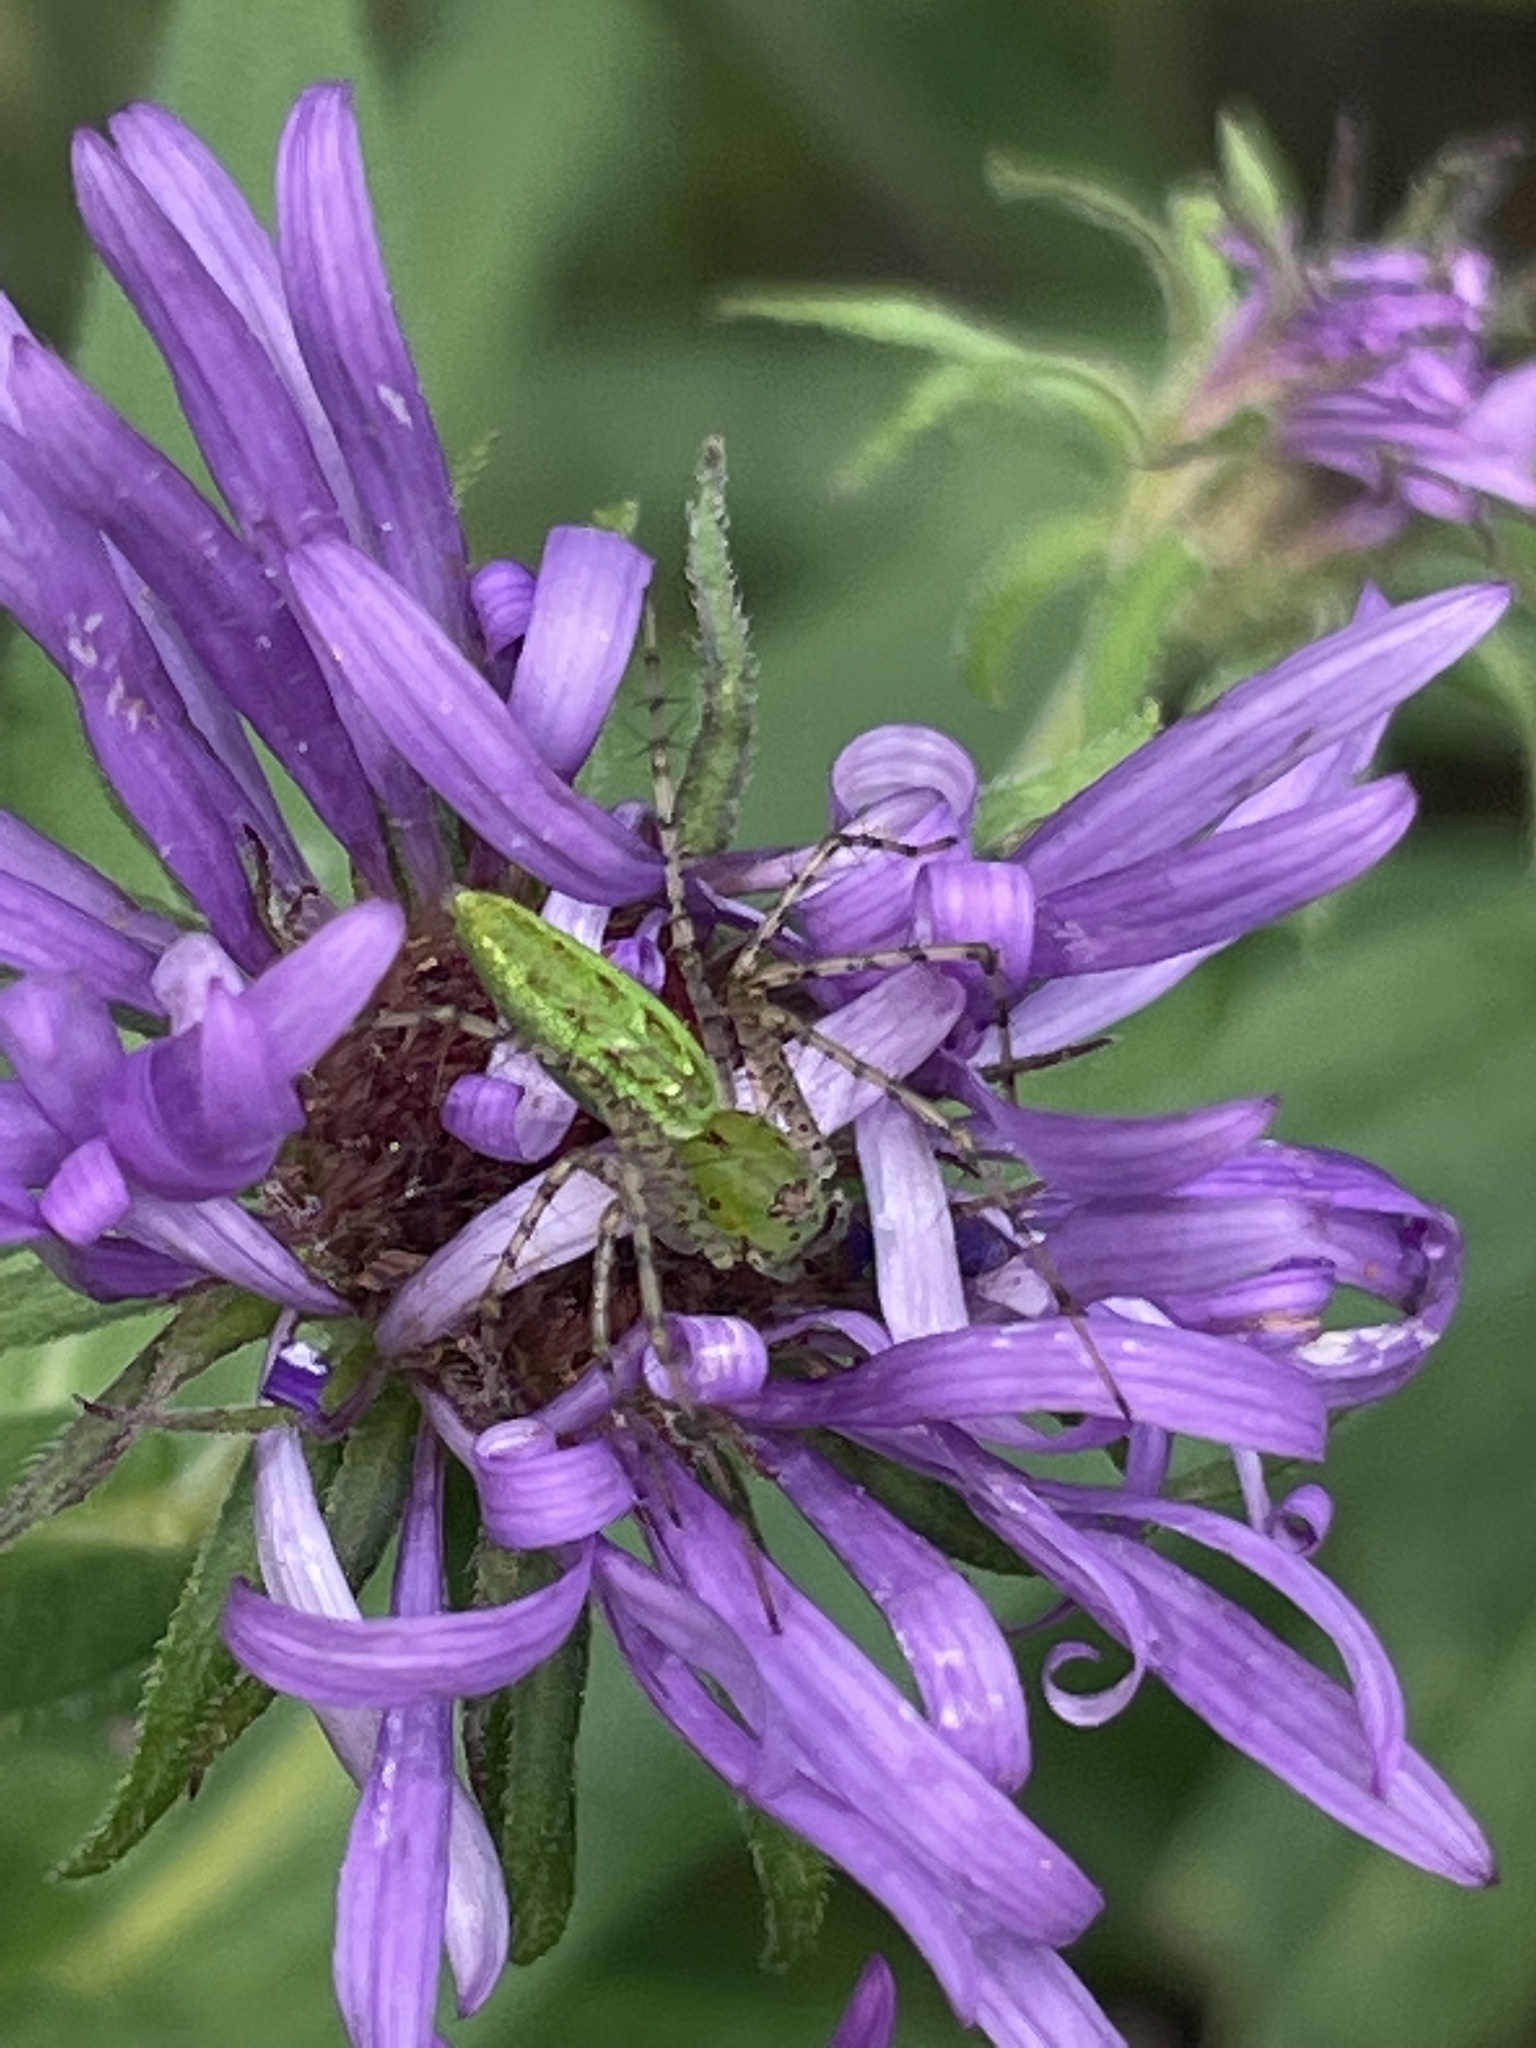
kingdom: Animalia
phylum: Arthropoda
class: Arachnida
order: Araneae
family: Oxyopidae
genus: Peucetia
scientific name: Peucetia viridans
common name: Lynx spiders
